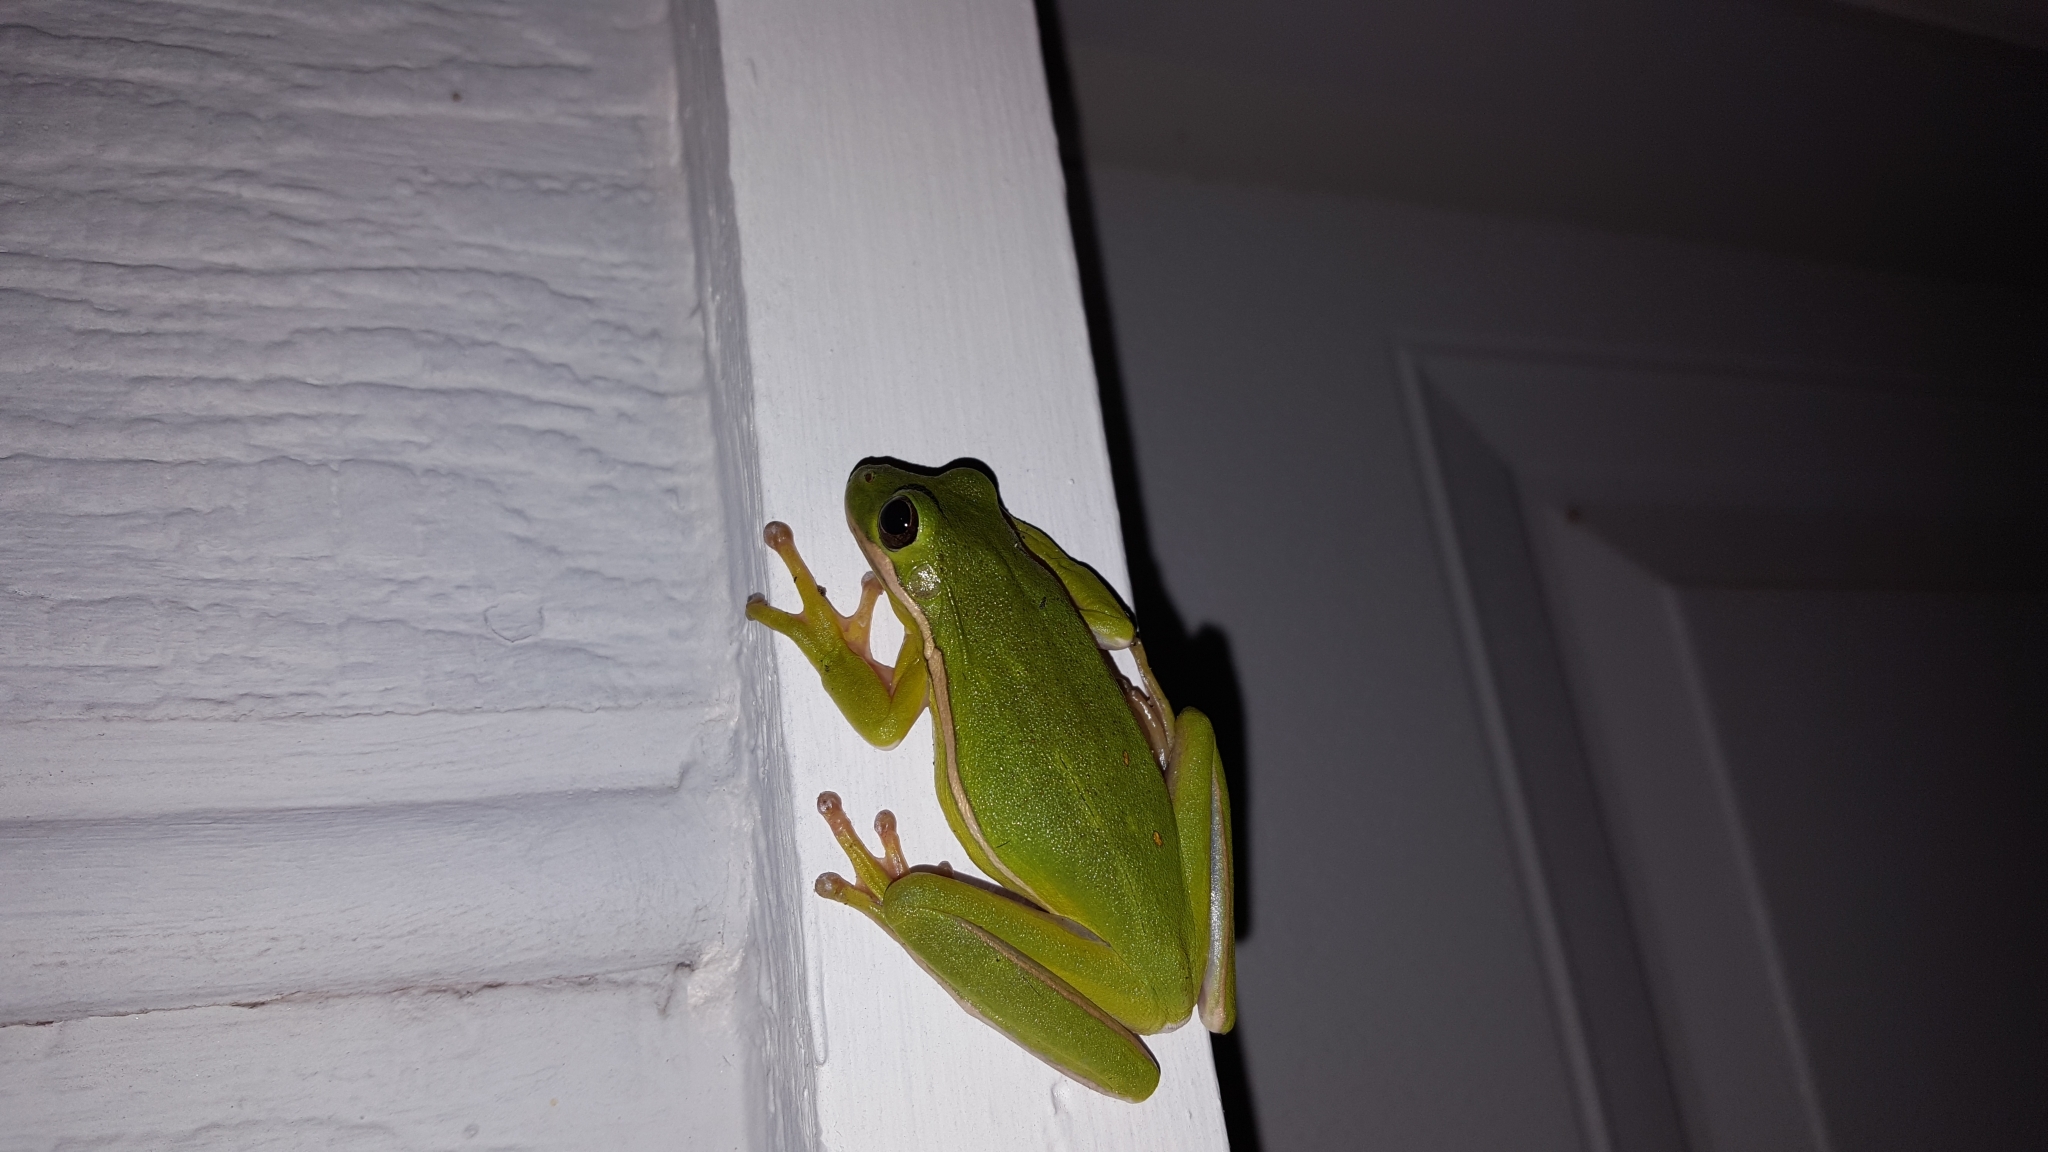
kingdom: Animalia
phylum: Chordata
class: Amphibia
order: Anura
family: Hylidae
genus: Dryophytes
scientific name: Dryophytes cinereus
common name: Green treefrog
